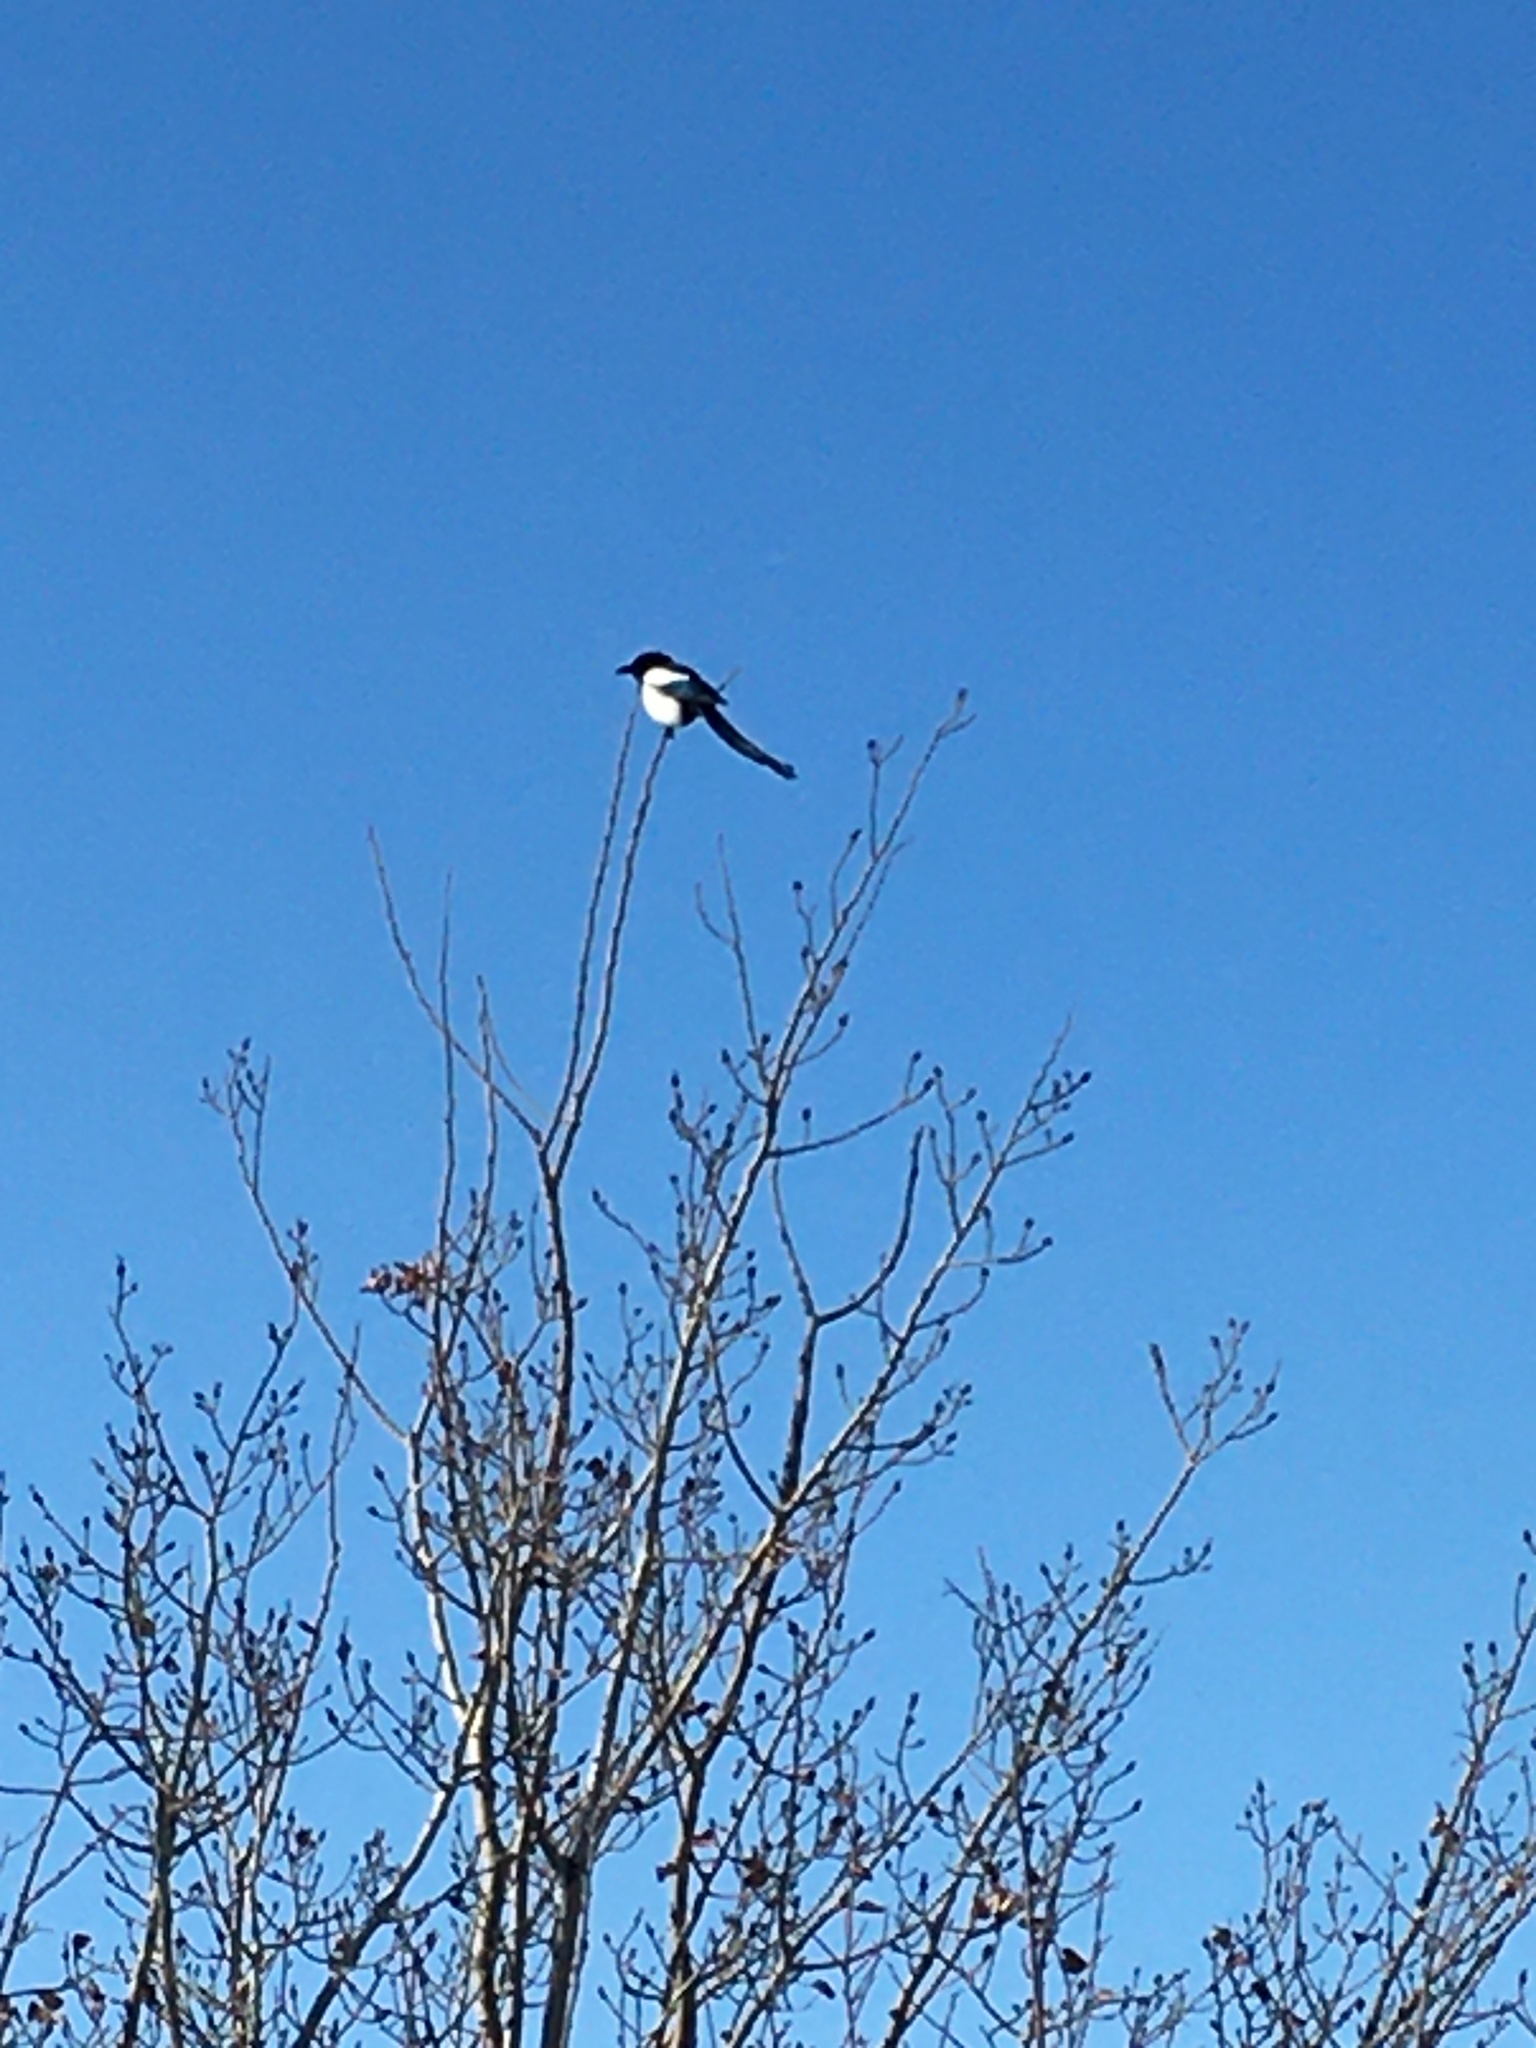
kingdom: Animalia
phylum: Chordata
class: Aves
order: Passeriformes
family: Corvidae
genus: Pica
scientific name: Pica hudsonia
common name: Black-billed magpie
